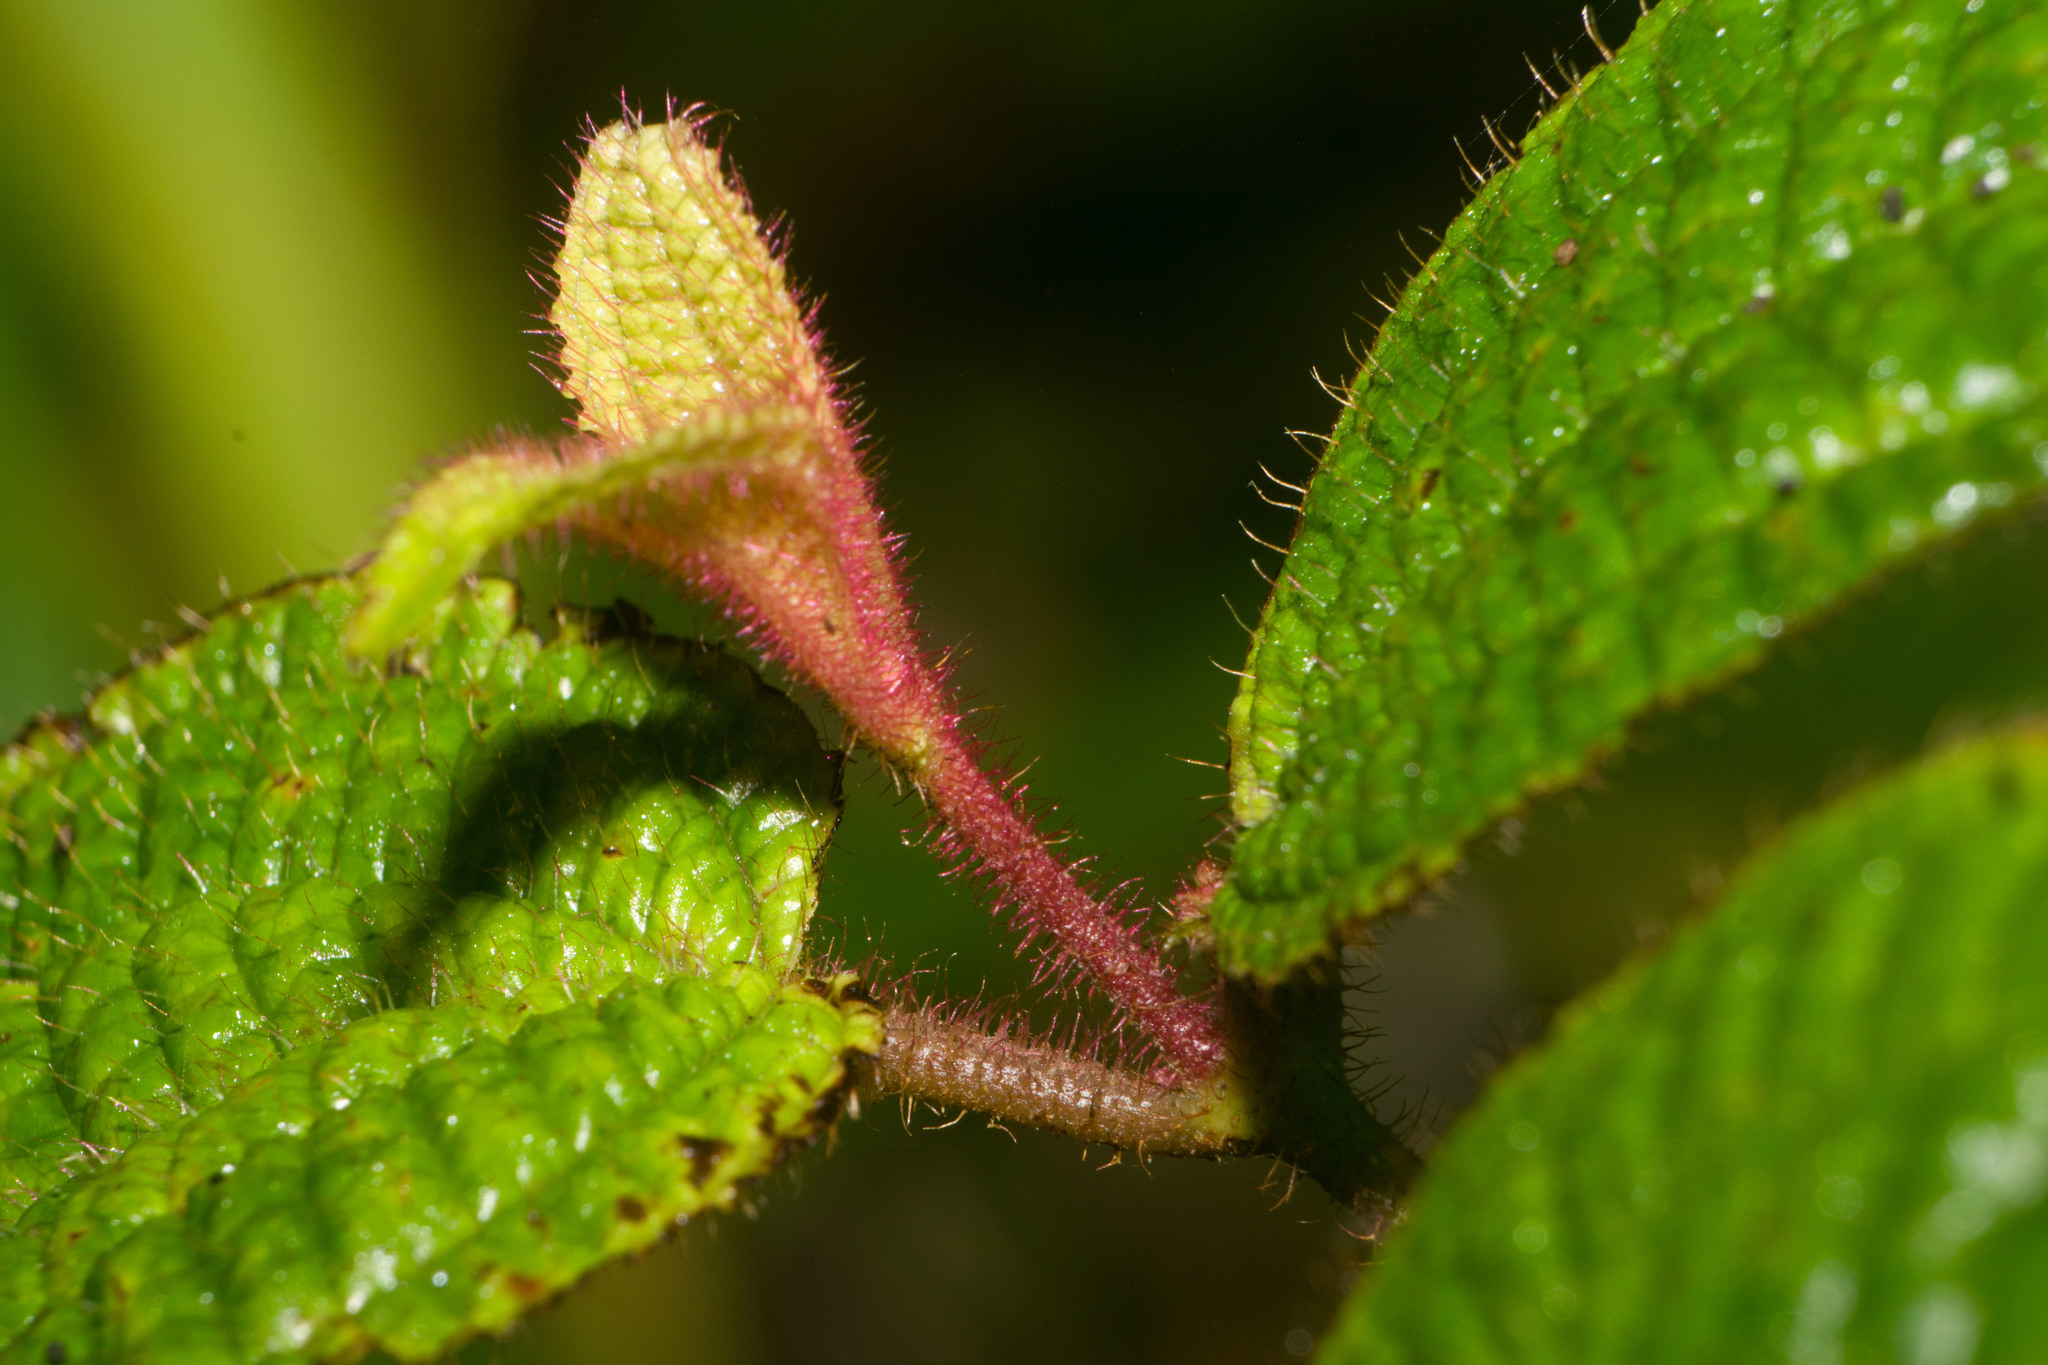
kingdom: Plantae
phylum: Tracheophyta
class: Magnoliopsida
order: Myrtales
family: Melastomataceae
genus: Miconia
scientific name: Miconia crenata
